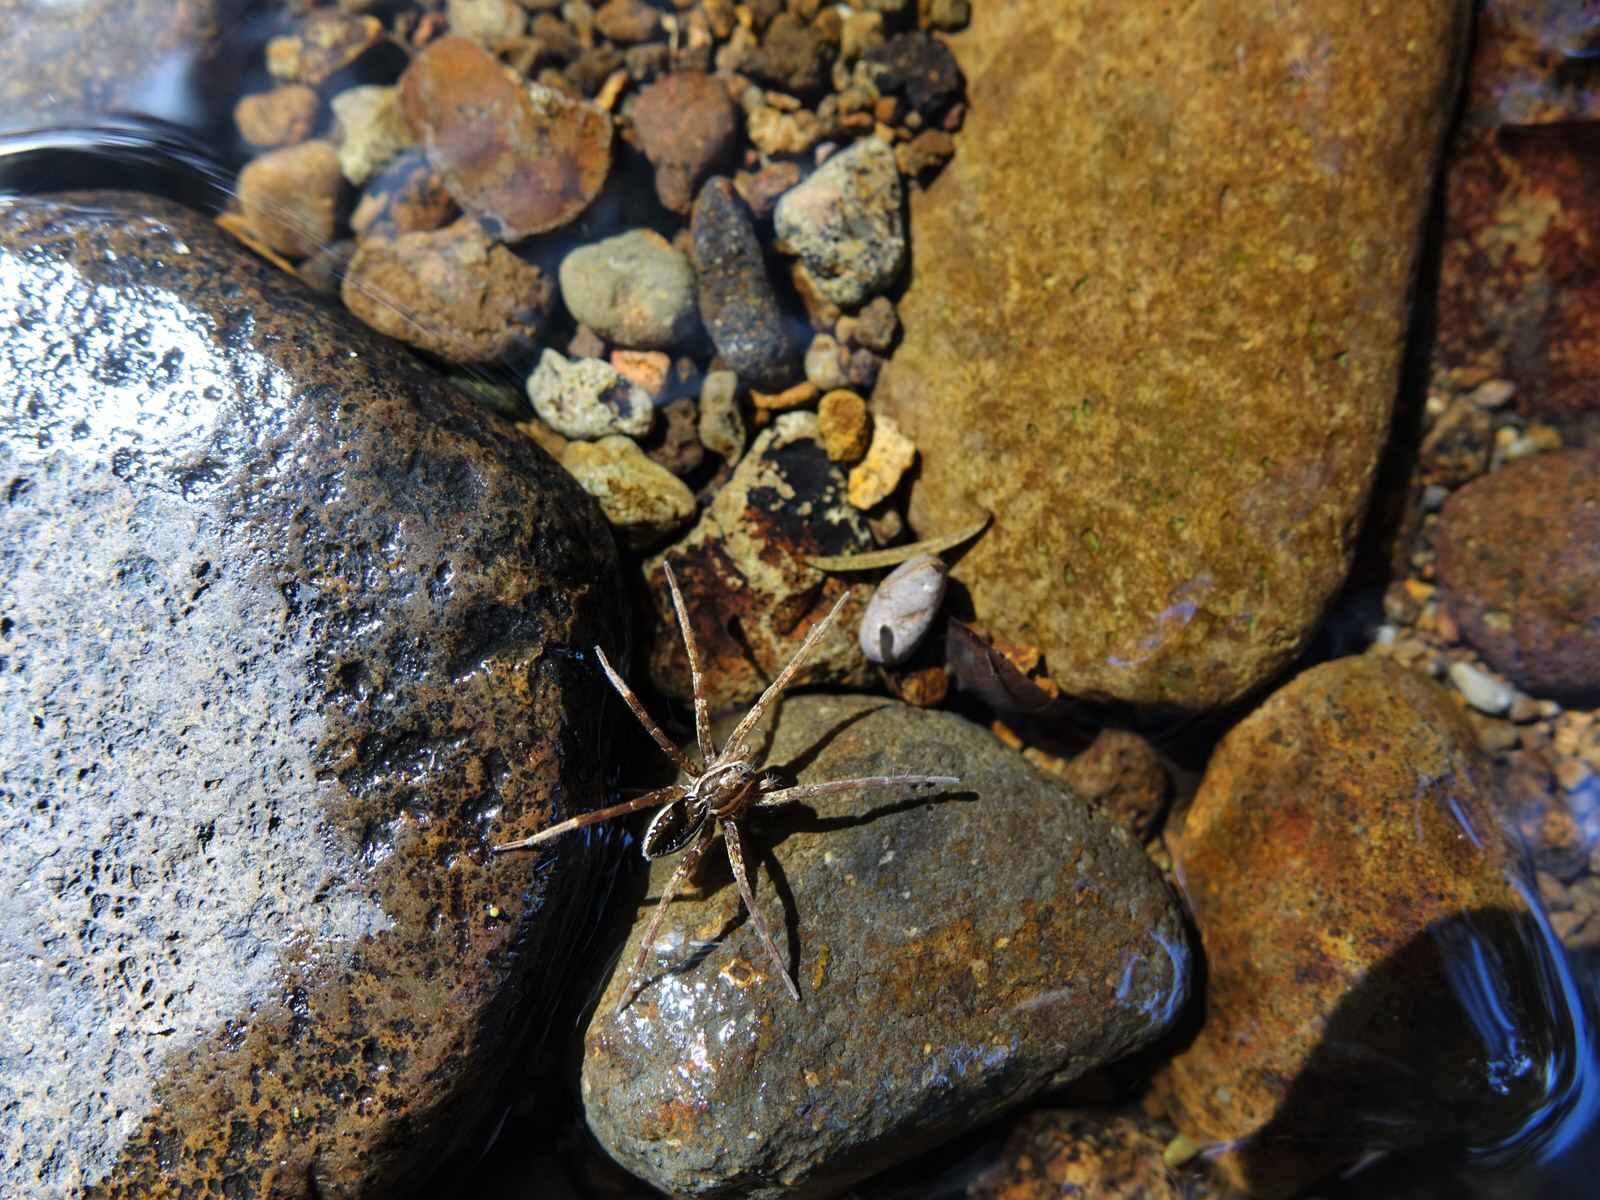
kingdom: Animalia
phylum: Arthropoda
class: Arachnida
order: Araneae
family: Pisauridae
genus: Dolomedes
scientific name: Dolomedes dondalei
